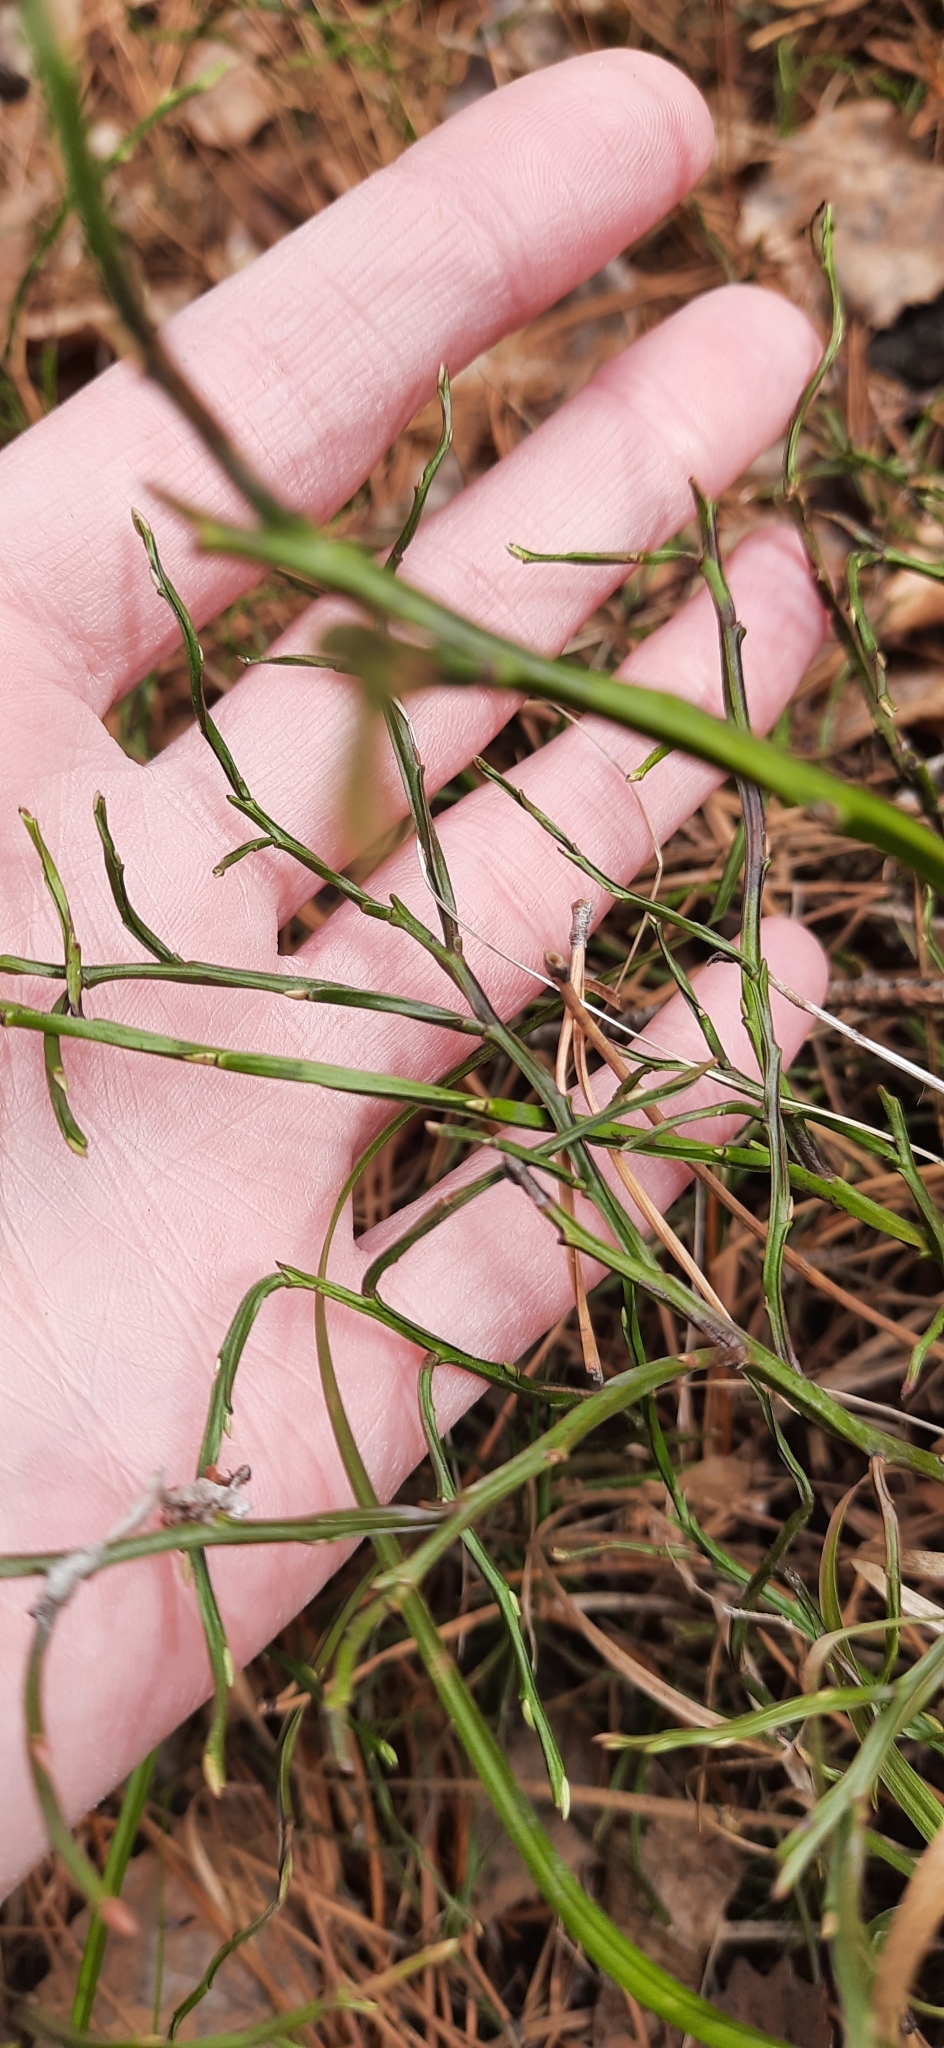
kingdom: Plantae
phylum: Tracheophyta
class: Magnoliopsida
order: Ericales
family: Ericaceae
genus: Vaccinium
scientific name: Vaccinium myrtillus
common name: Bilberry
